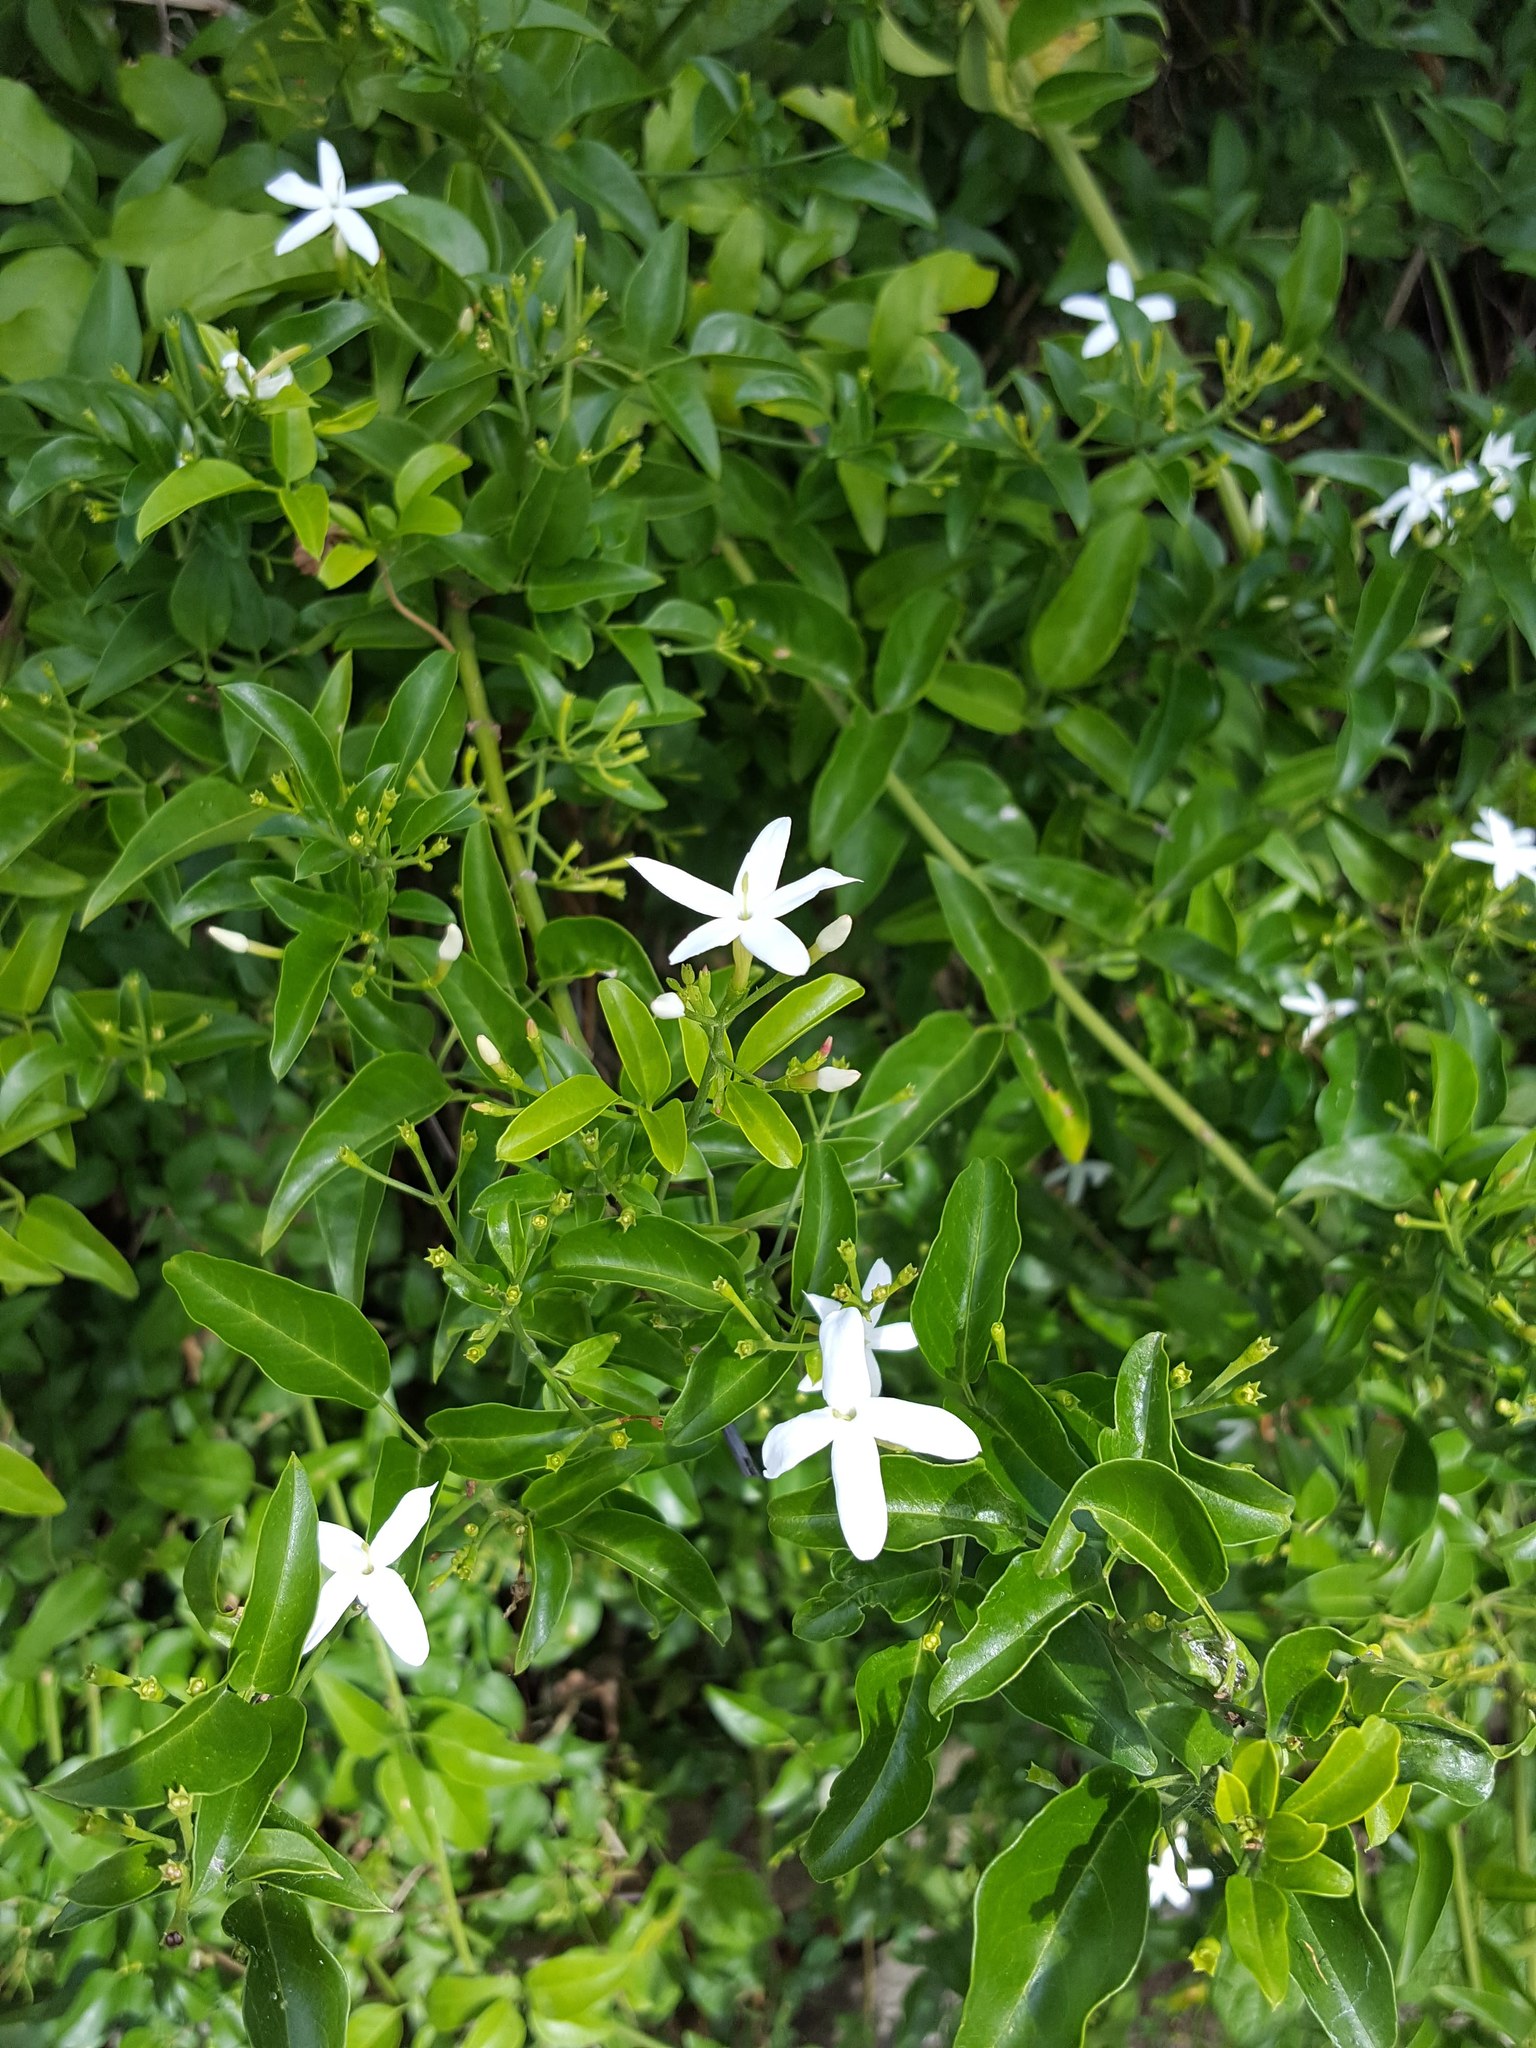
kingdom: Plantae
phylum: Tracheophyta
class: Magnoliopsida
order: Lamiales
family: Oleaceae
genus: Jasminum
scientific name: Jasminum polyanthum
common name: Pink jasmine
